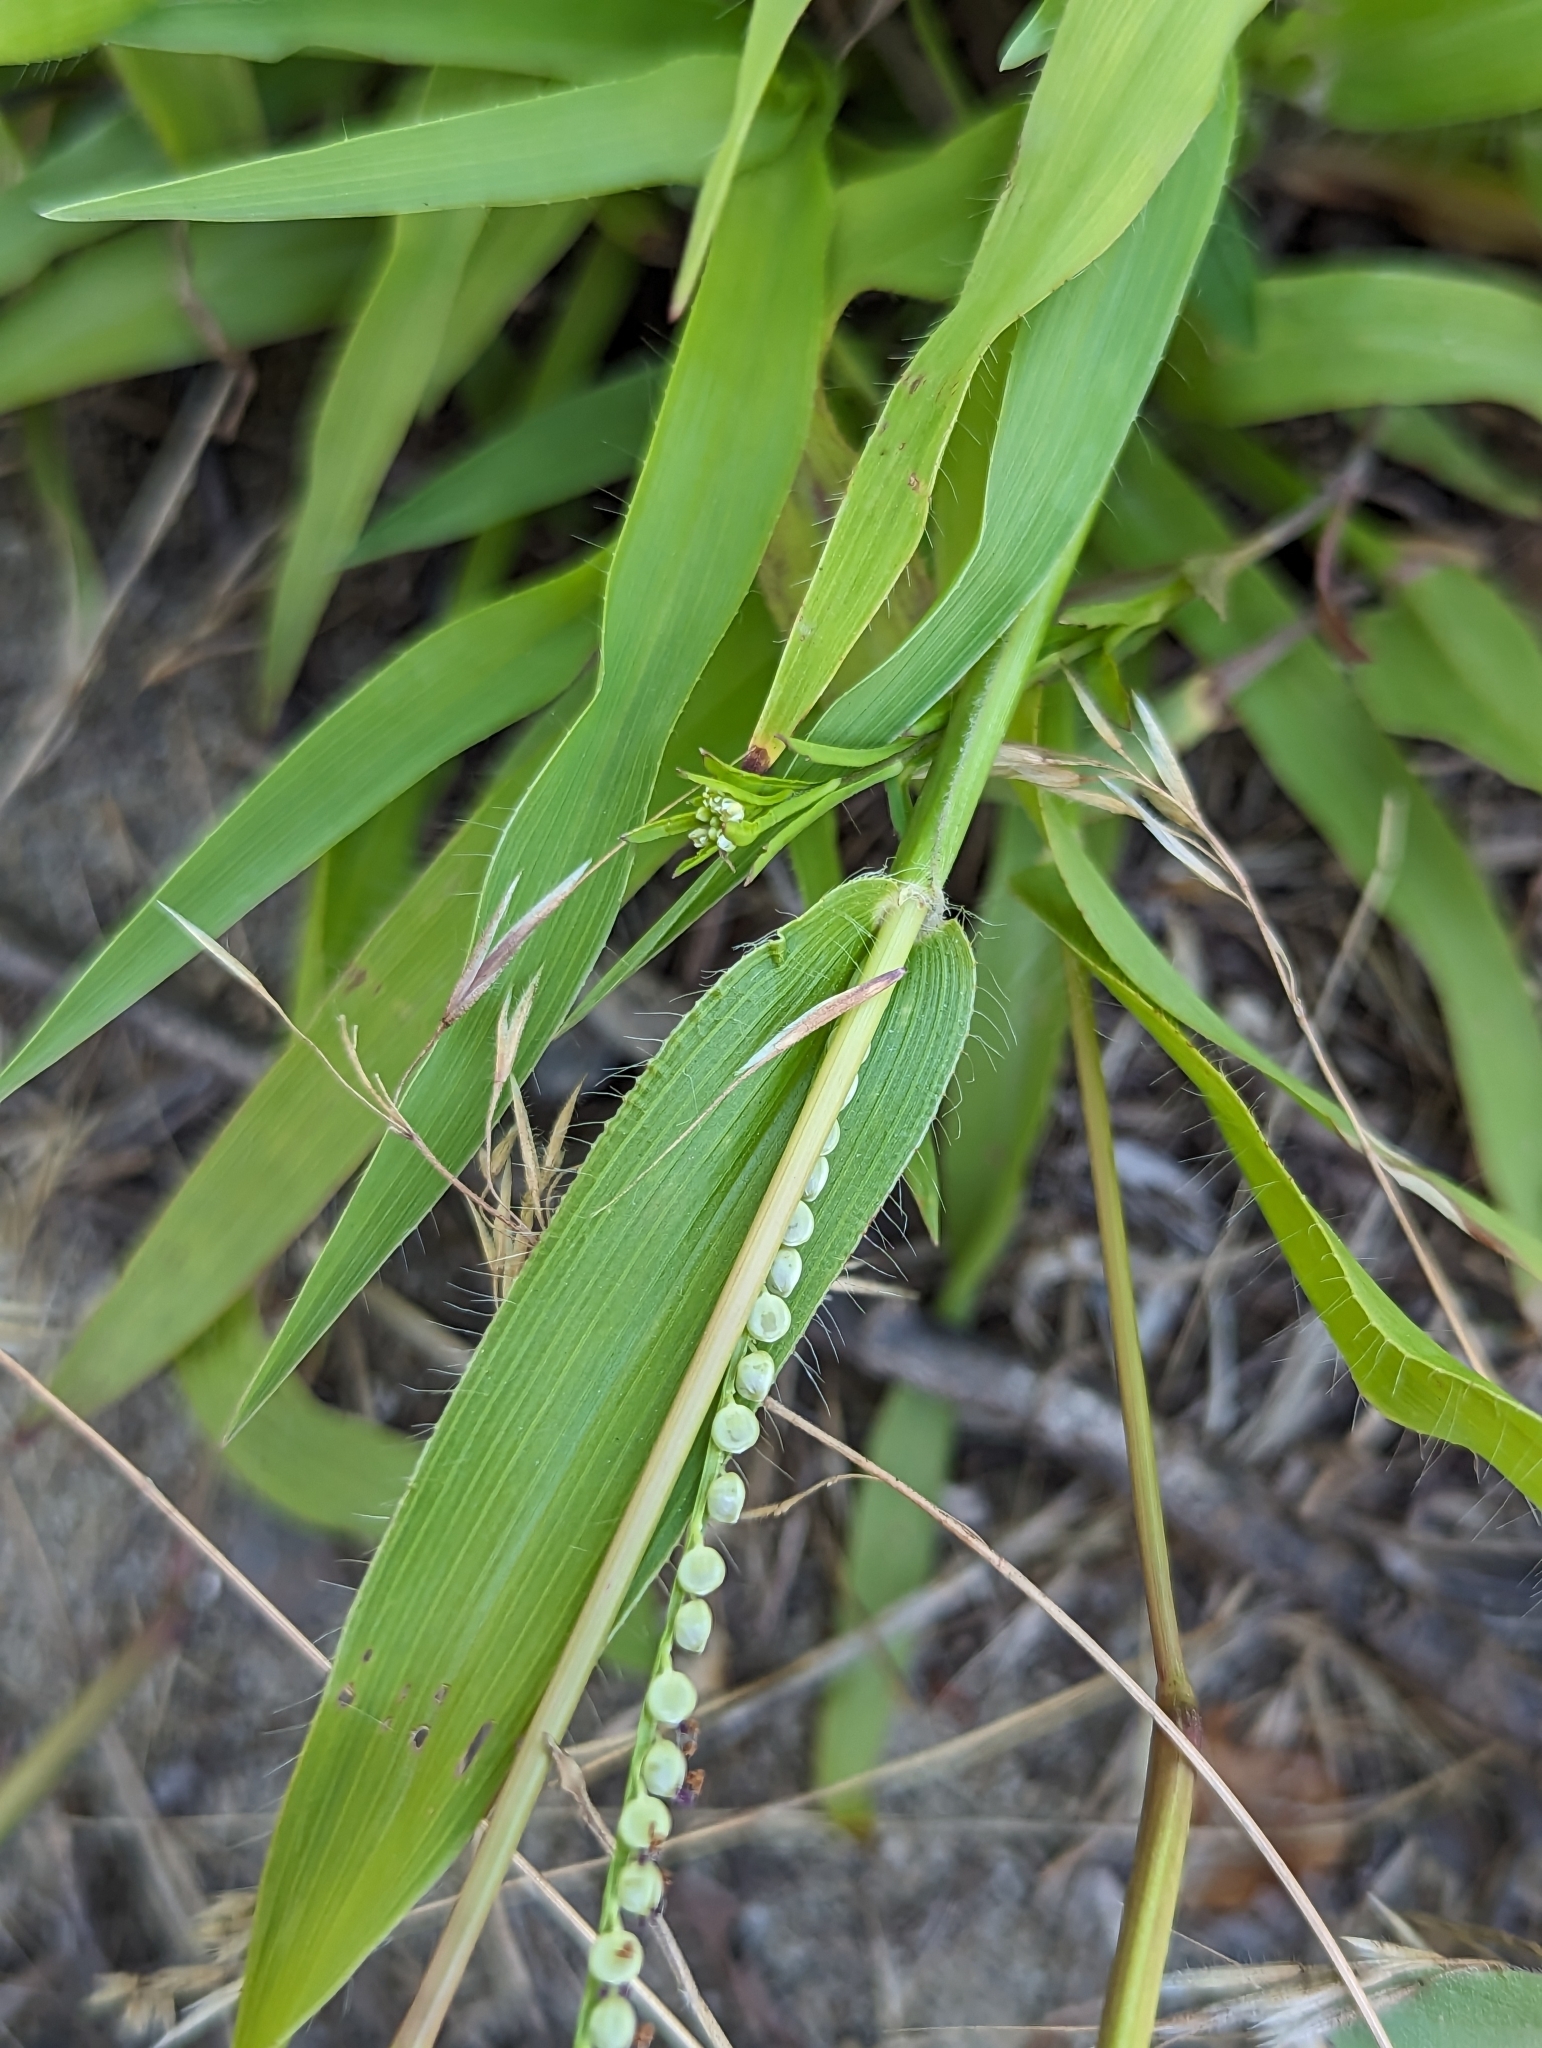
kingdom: Plantae
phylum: Tracheophyta
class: Liliopsida
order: Poales
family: Poaceae
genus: Paspalum
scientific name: Paspalum setaceum
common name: Slender paspalum
